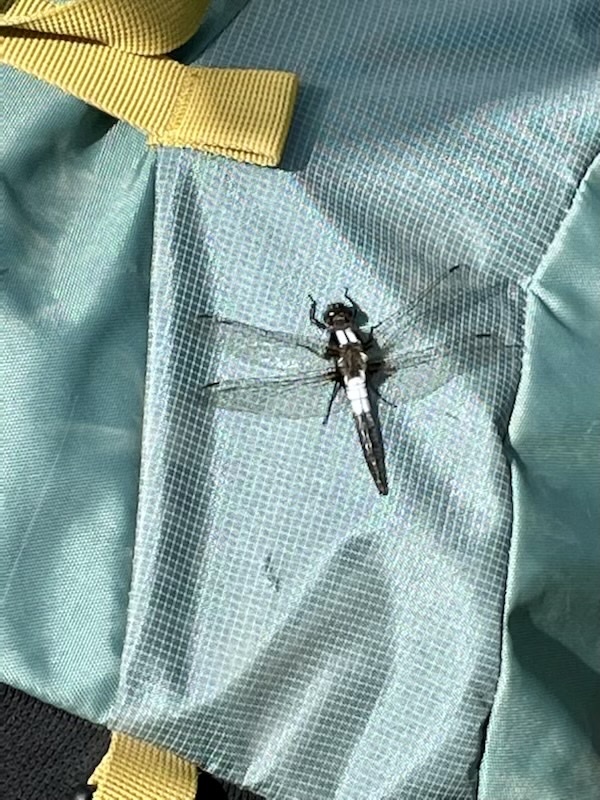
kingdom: Animalia
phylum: Arthropoda
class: Insecta
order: Odonata
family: Libellulidae
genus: Ladona
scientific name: Ladona julia
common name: Chalk-fronted corporal
